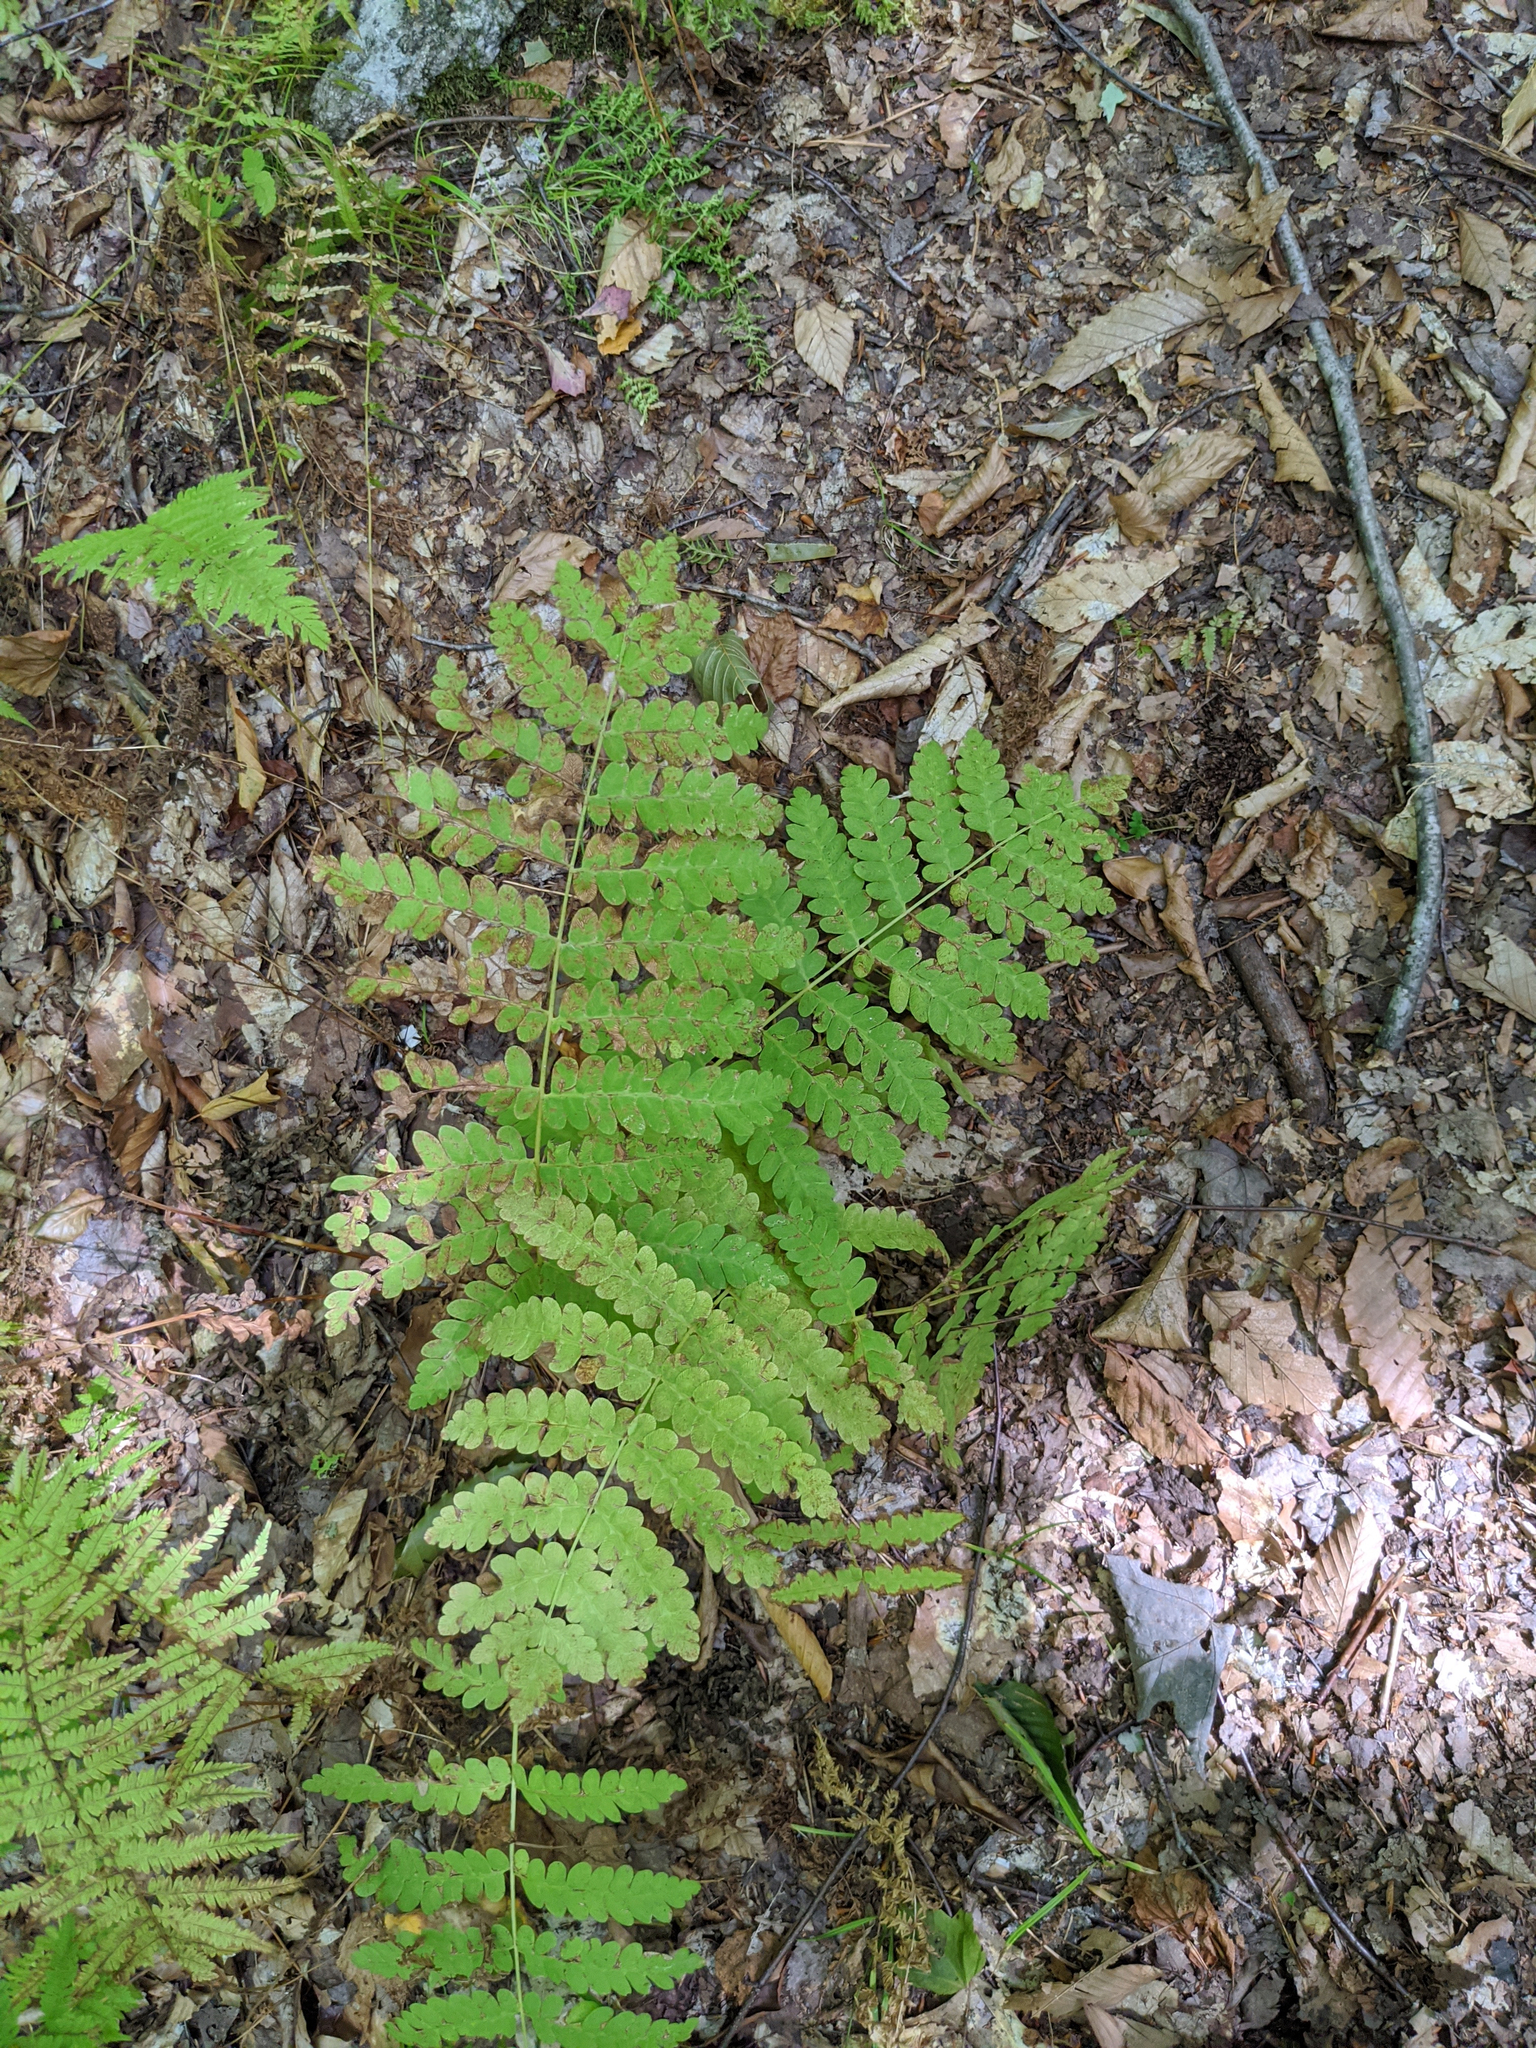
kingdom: Plantae
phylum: Tracheophyta
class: Polypodiopsida
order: Osmundales
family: Osmundaceae
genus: Claytosmunda
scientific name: Claytosmunda claytoniana
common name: Clayton's fern
